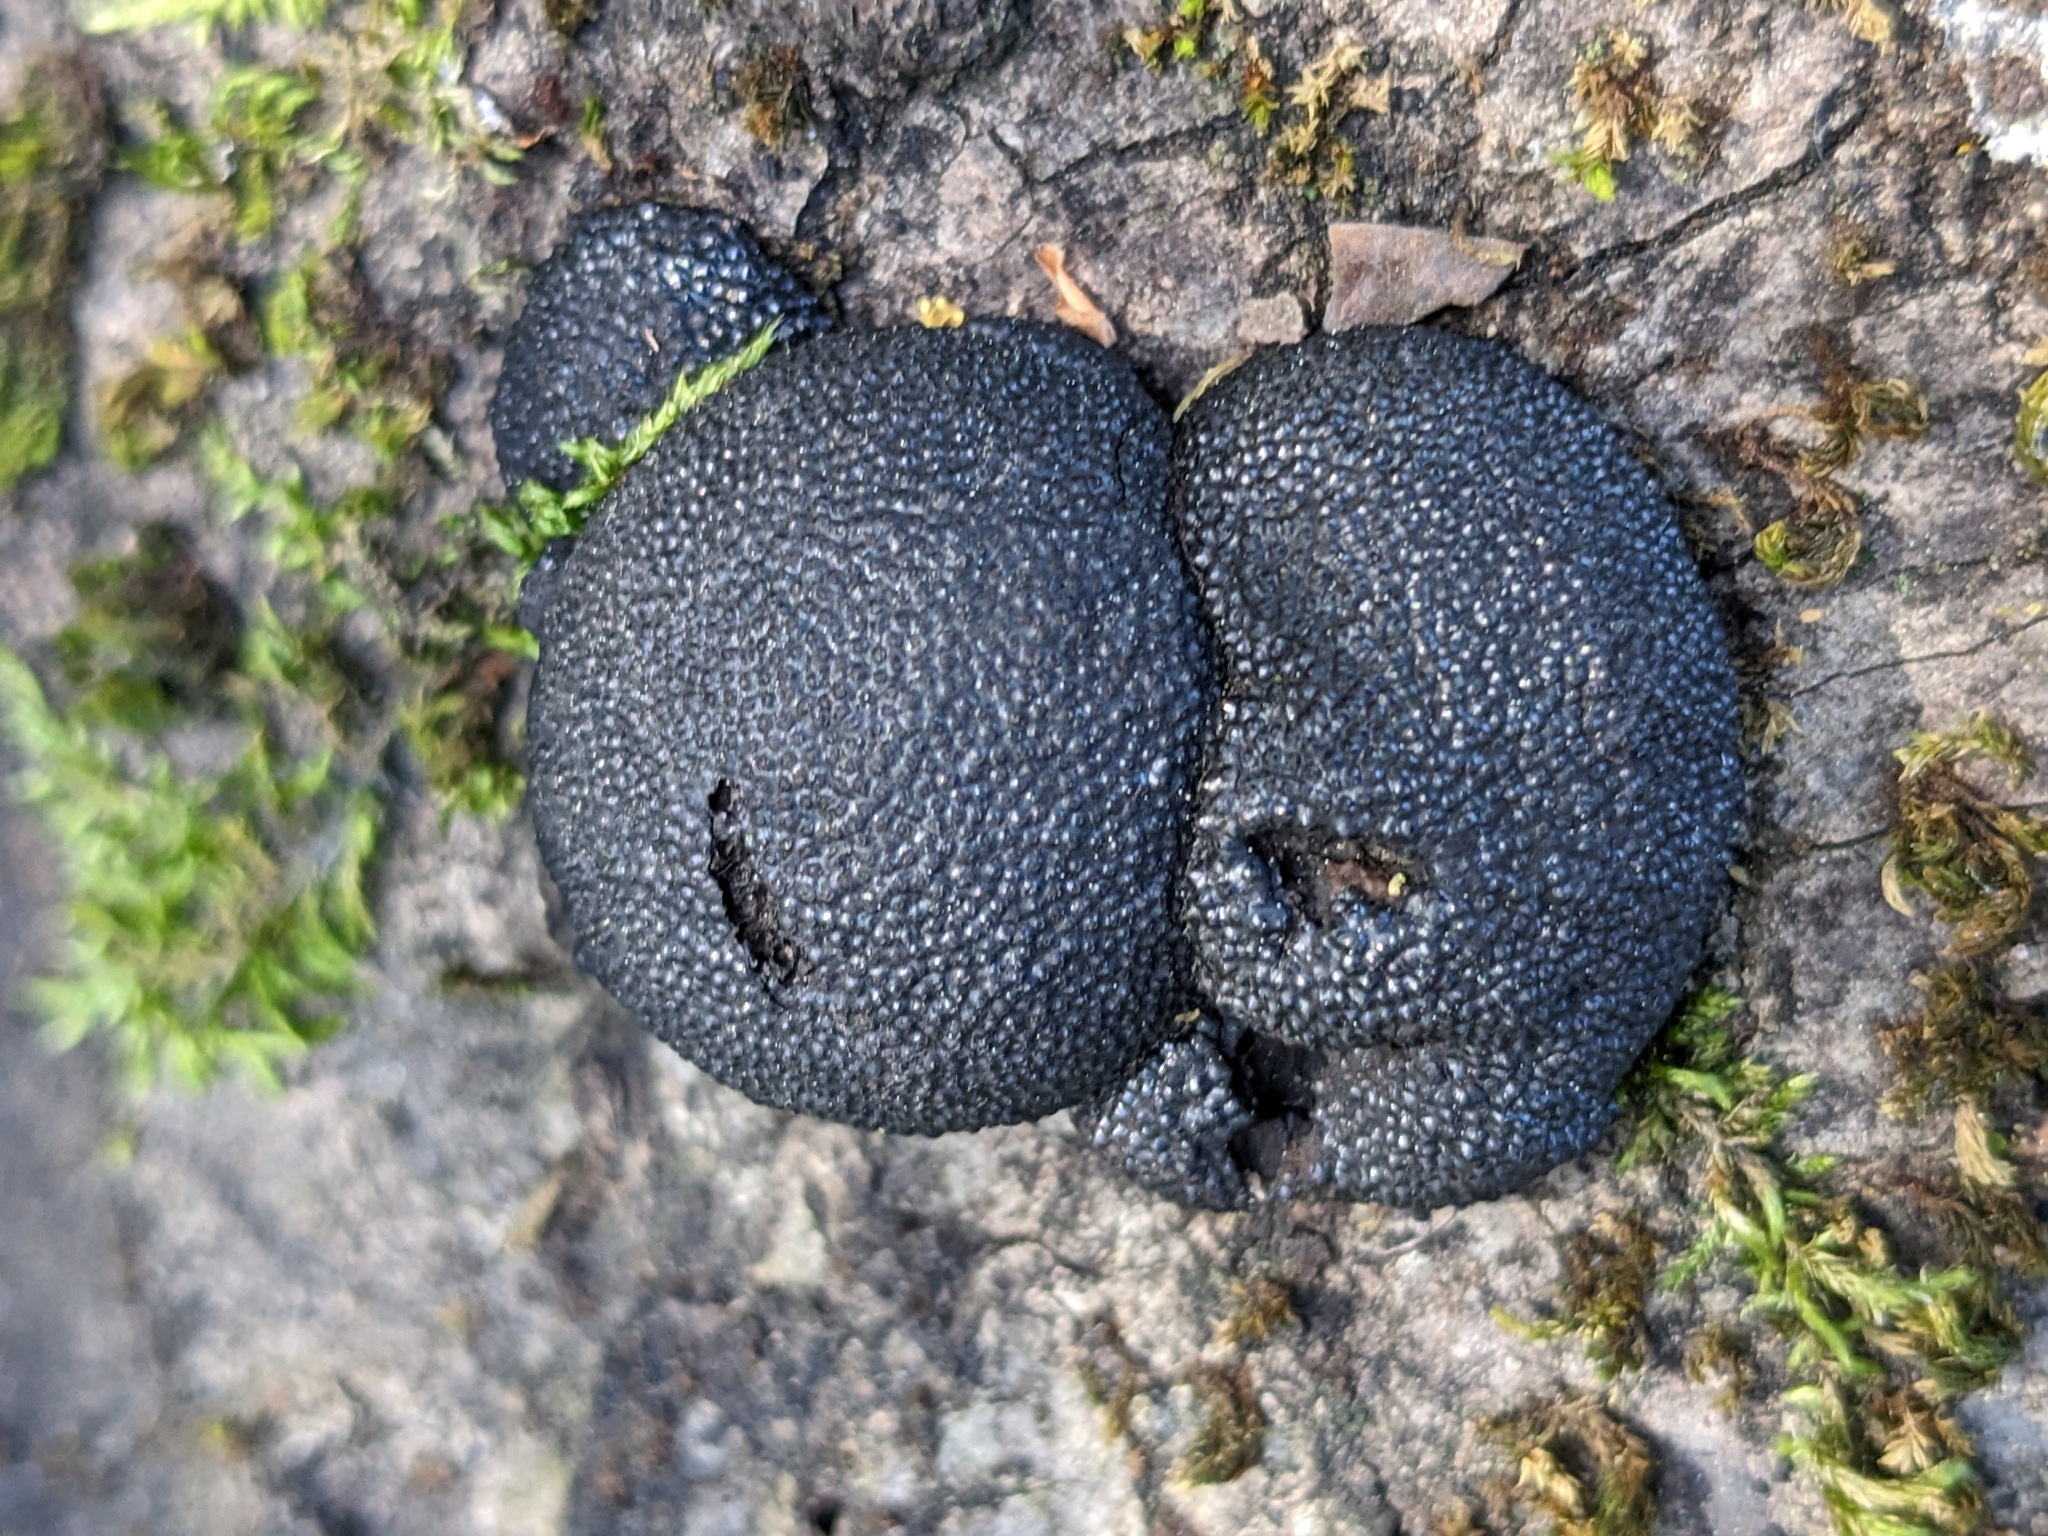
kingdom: Fungi
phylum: Ascomycota
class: Sordariomycetes
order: Xylariales
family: Hypoxylaceae
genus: Annulohypoxylon
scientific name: Annulohypoxylon thouarsianum
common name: Cramp balls
